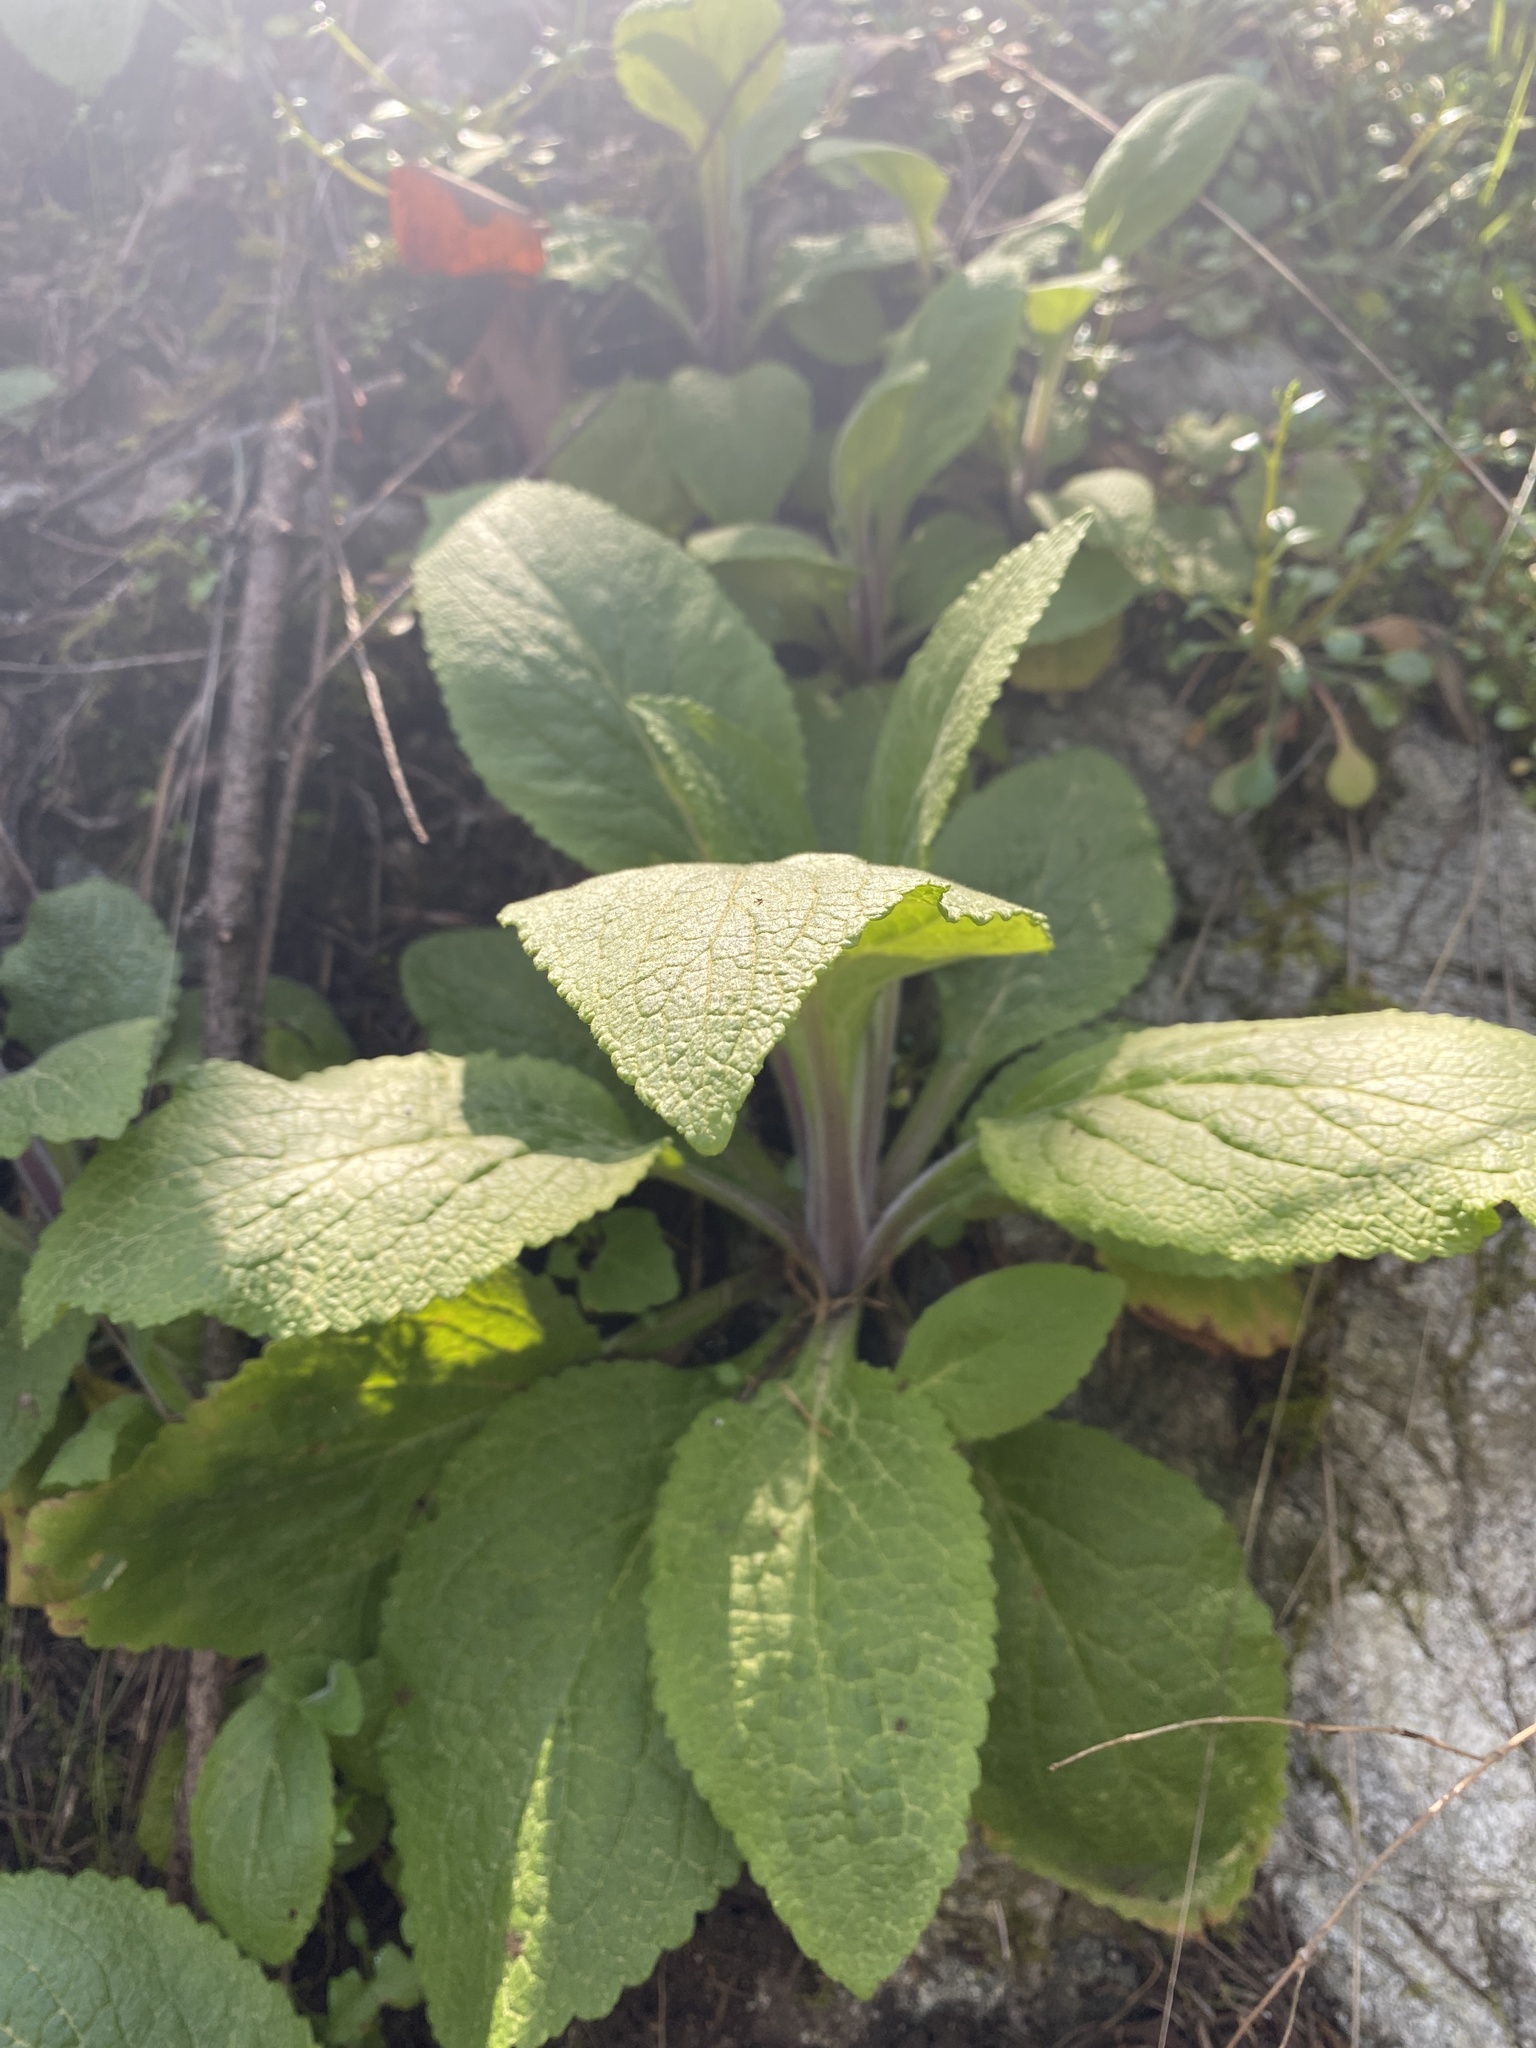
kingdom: Plantae
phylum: Tracheophyta
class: Magnoliopsida
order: Lamiales
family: Plantaginaceae
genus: Digitalis
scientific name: Digitalis purpurea
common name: Foxglove
